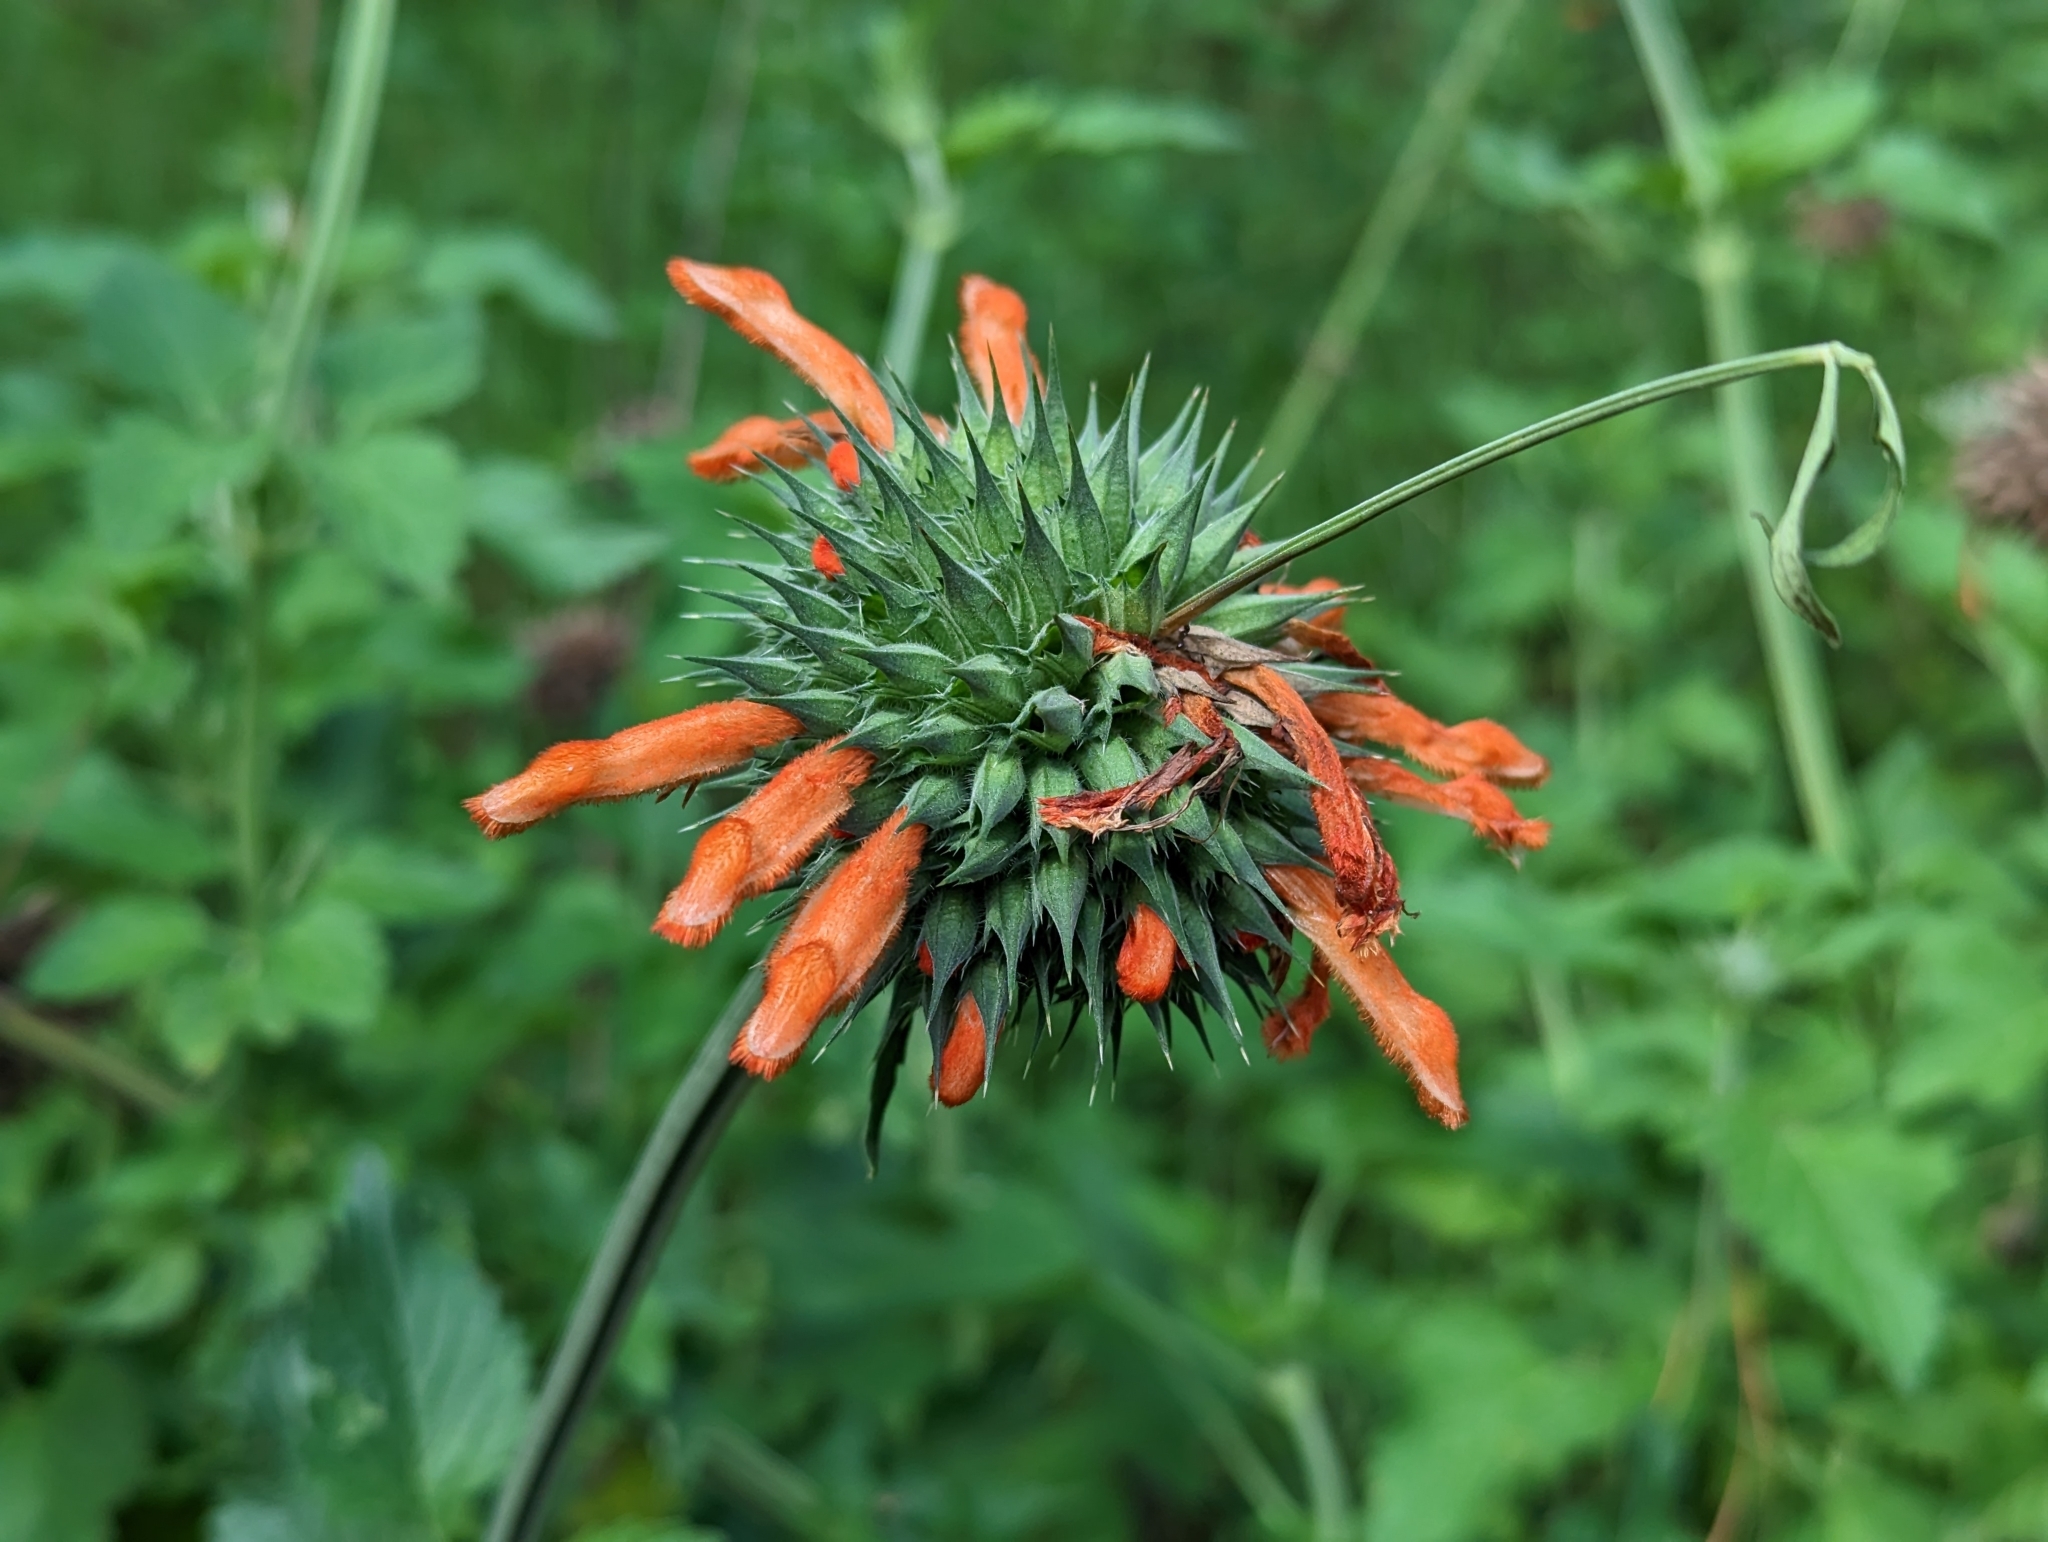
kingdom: Plantae
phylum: Tracheophyta
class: Magnoliopsida
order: Lamiales
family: Lamiaceae
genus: Leonotis
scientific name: Leonotis nepetifolia
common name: Christmas candlestick
